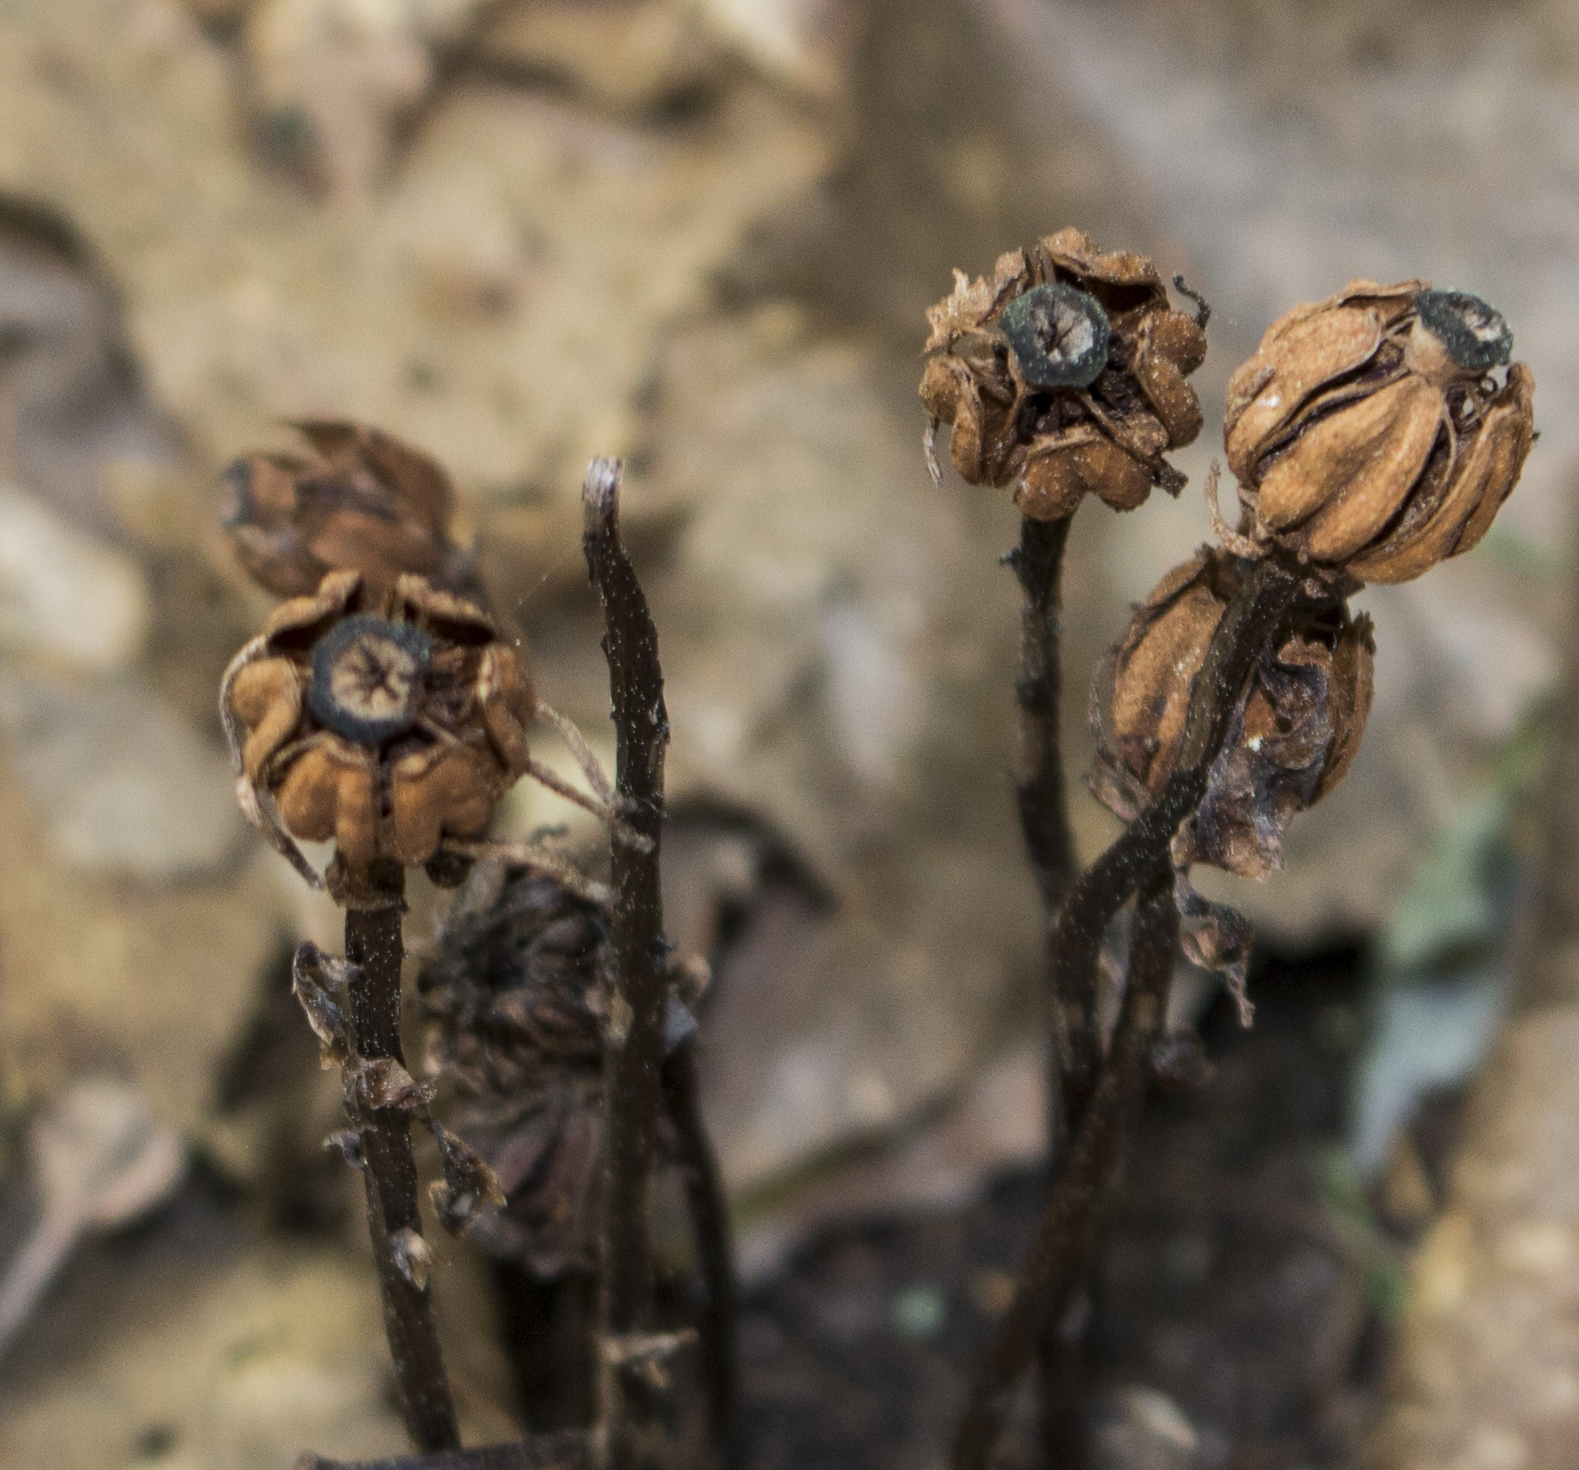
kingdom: Plantae
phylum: Tracheophyta
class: Magnoliopsida
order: Ericales
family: Ericaceae
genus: Monotropa
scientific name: Monotropa uniflora
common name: Convulsion root
